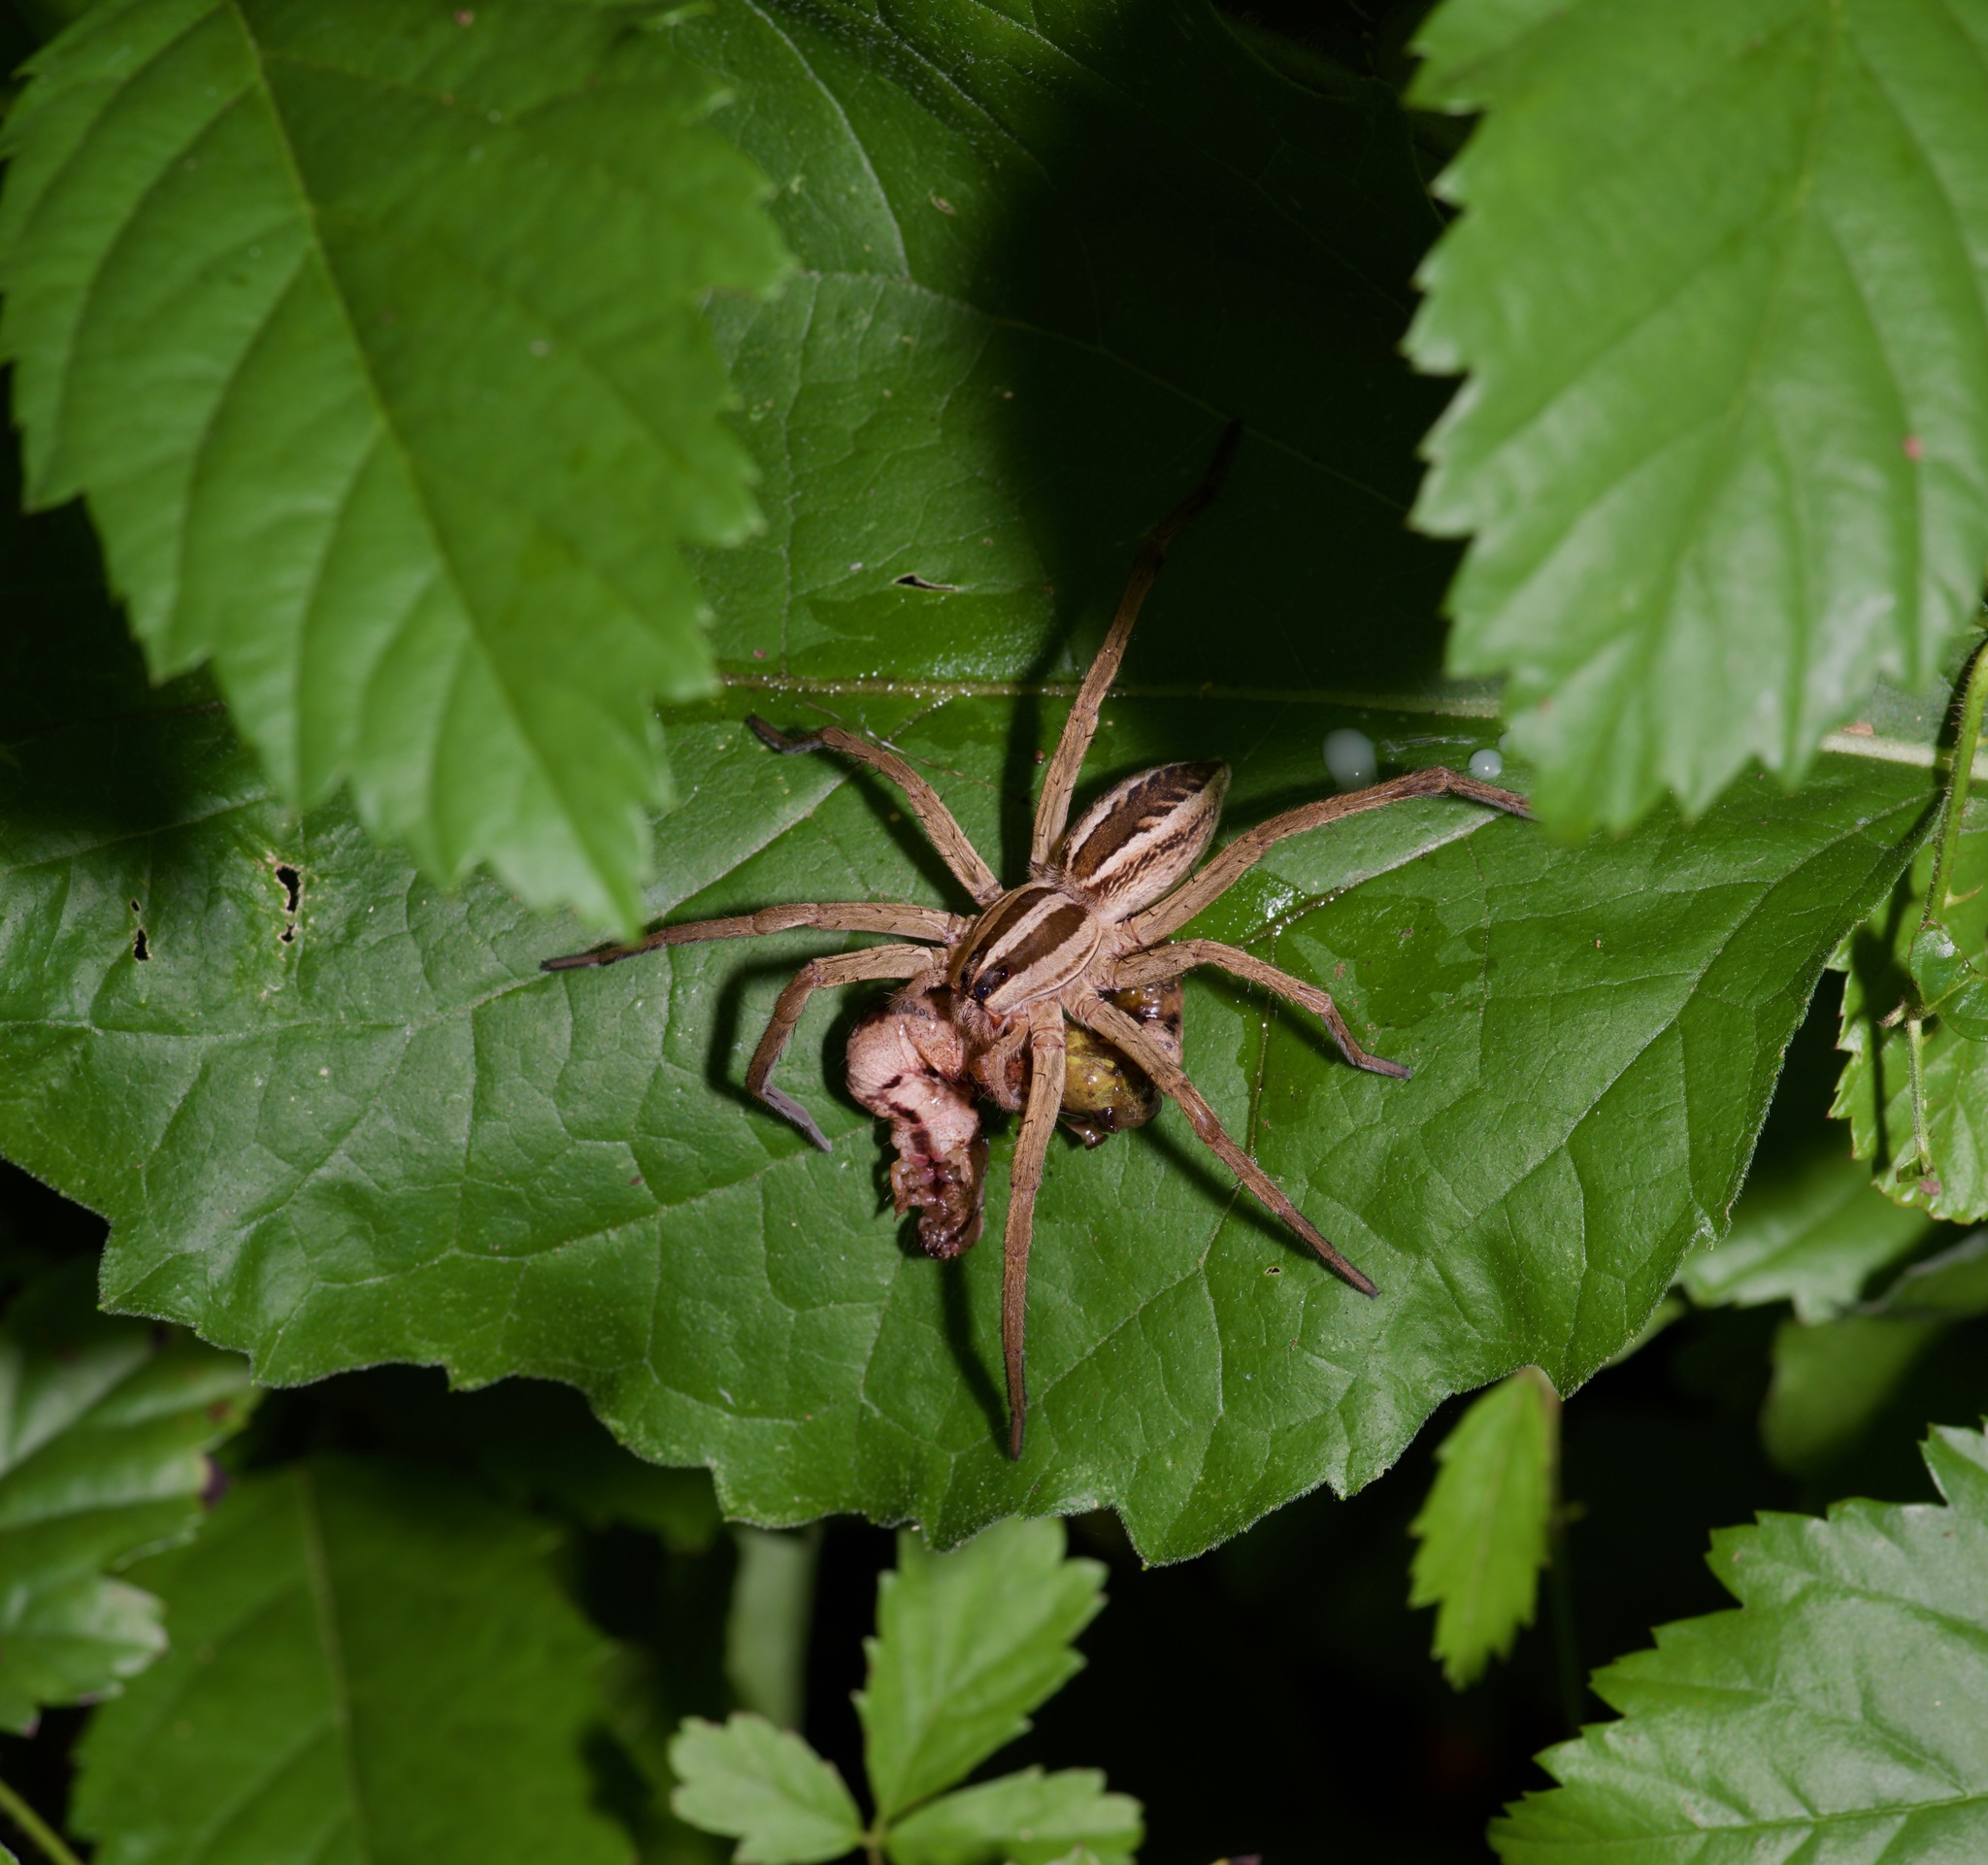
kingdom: Animalia
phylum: Arthropoda
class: Arachnida
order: Araneae
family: Lycosidae
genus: Rabidosa
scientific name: Rabidosa rabida
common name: Rabid wolf spider
